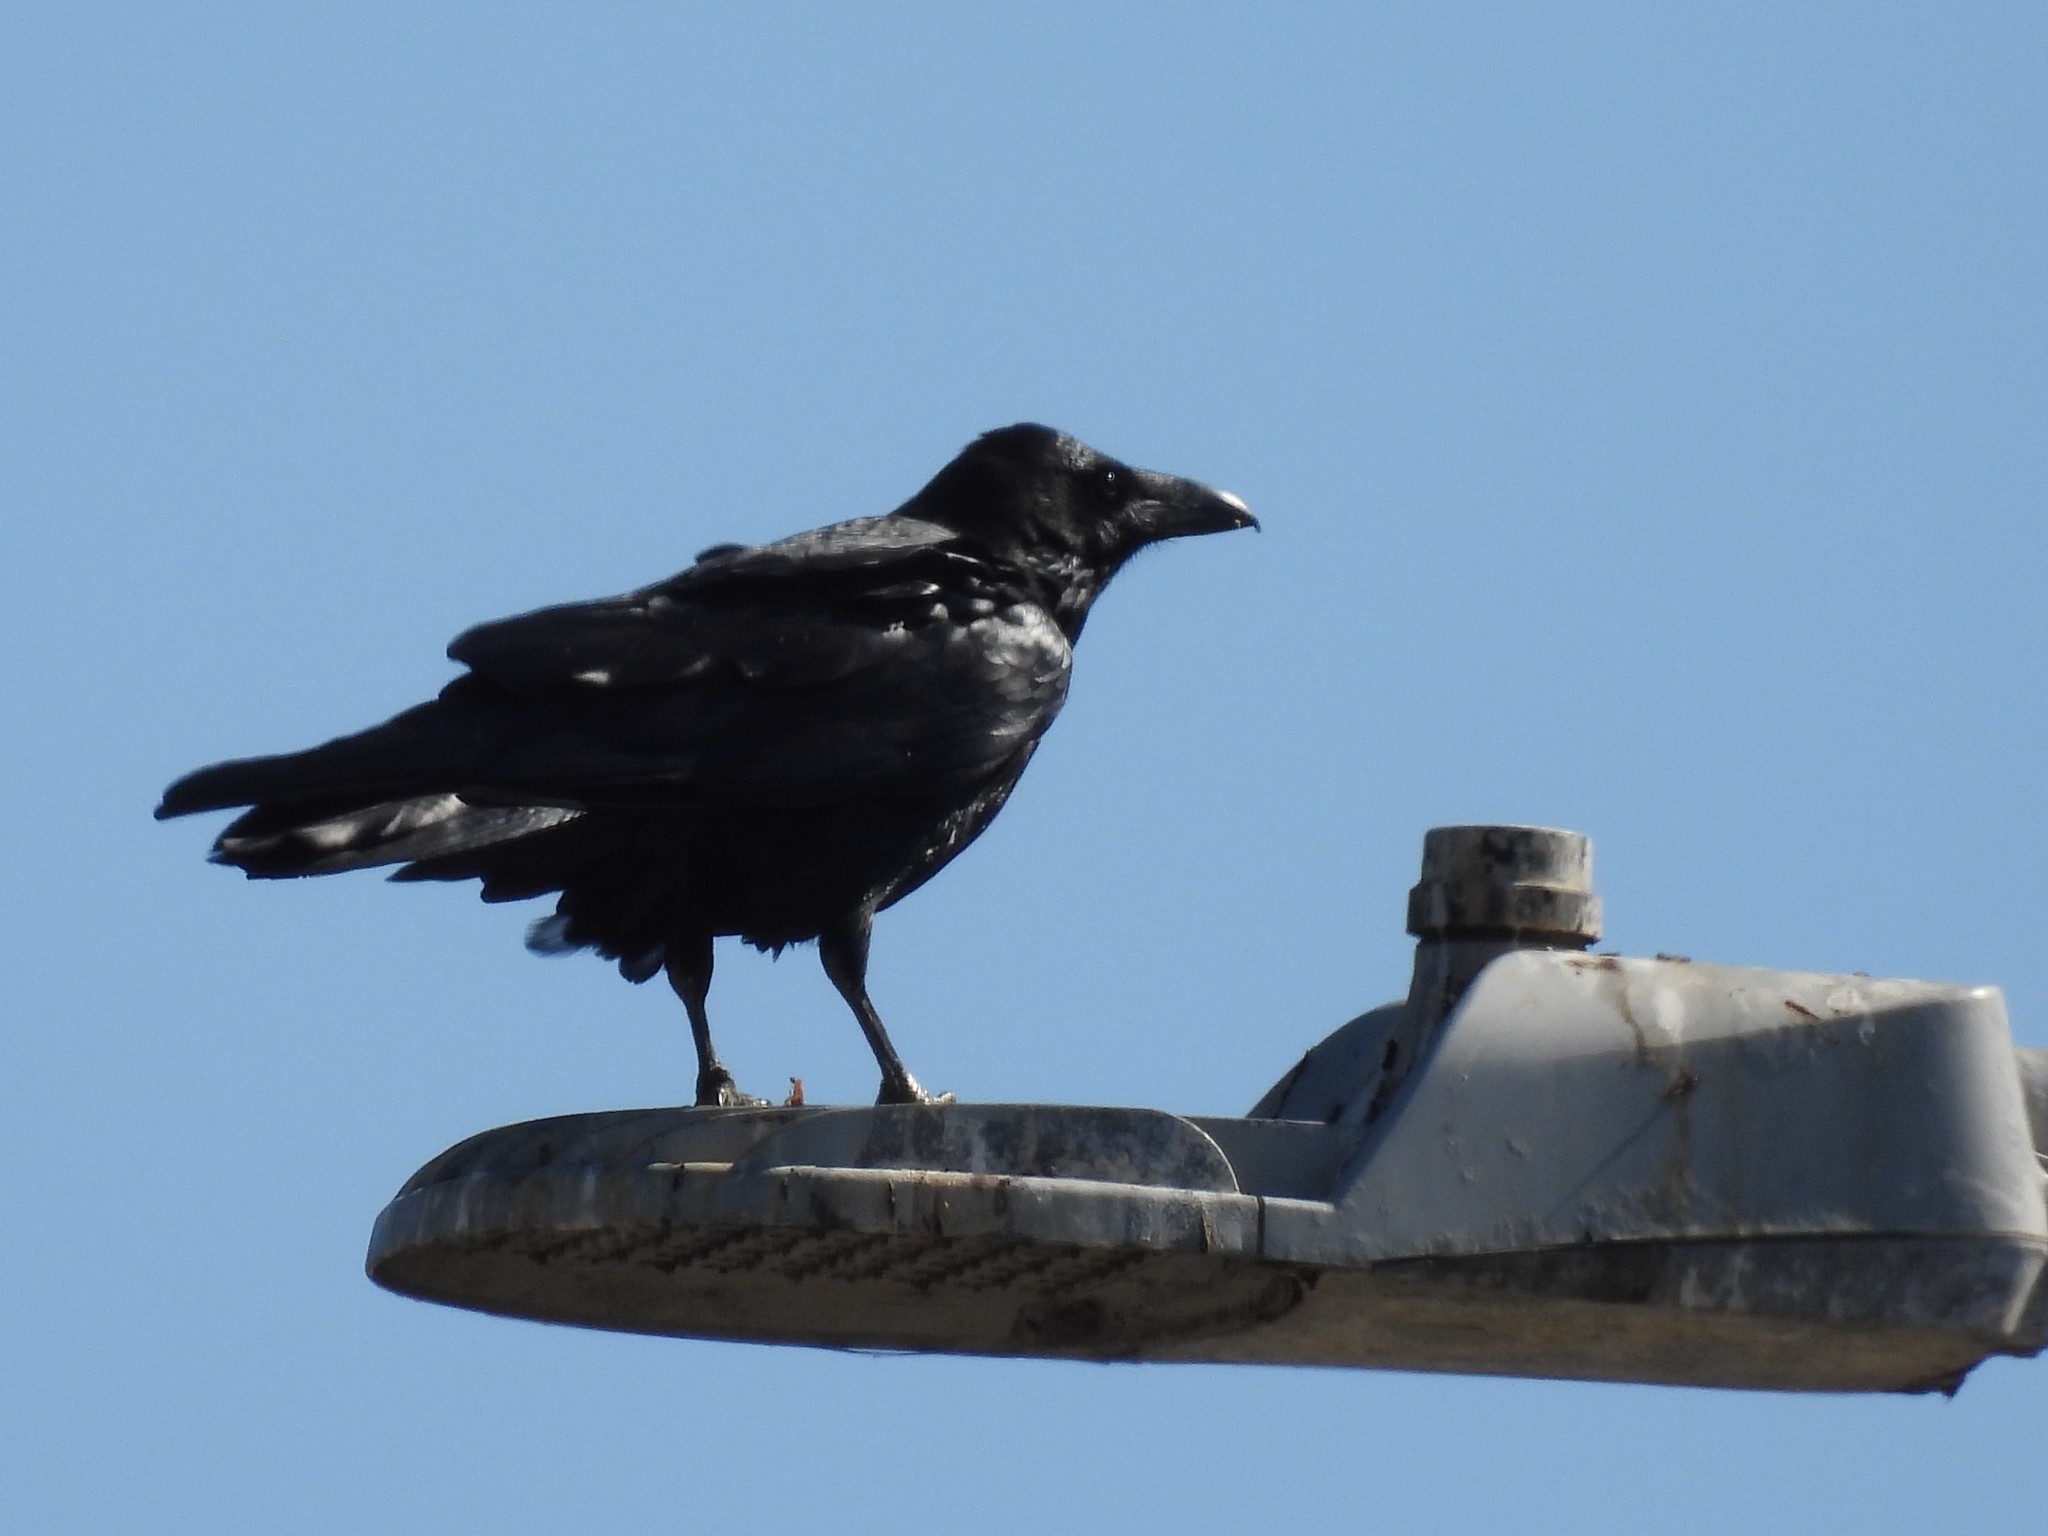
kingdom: Animalia
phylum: Chordata
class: Aves
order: Passeriformes
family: Corvidae
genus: Corvus
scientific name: Corvus corax
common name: Common raven
